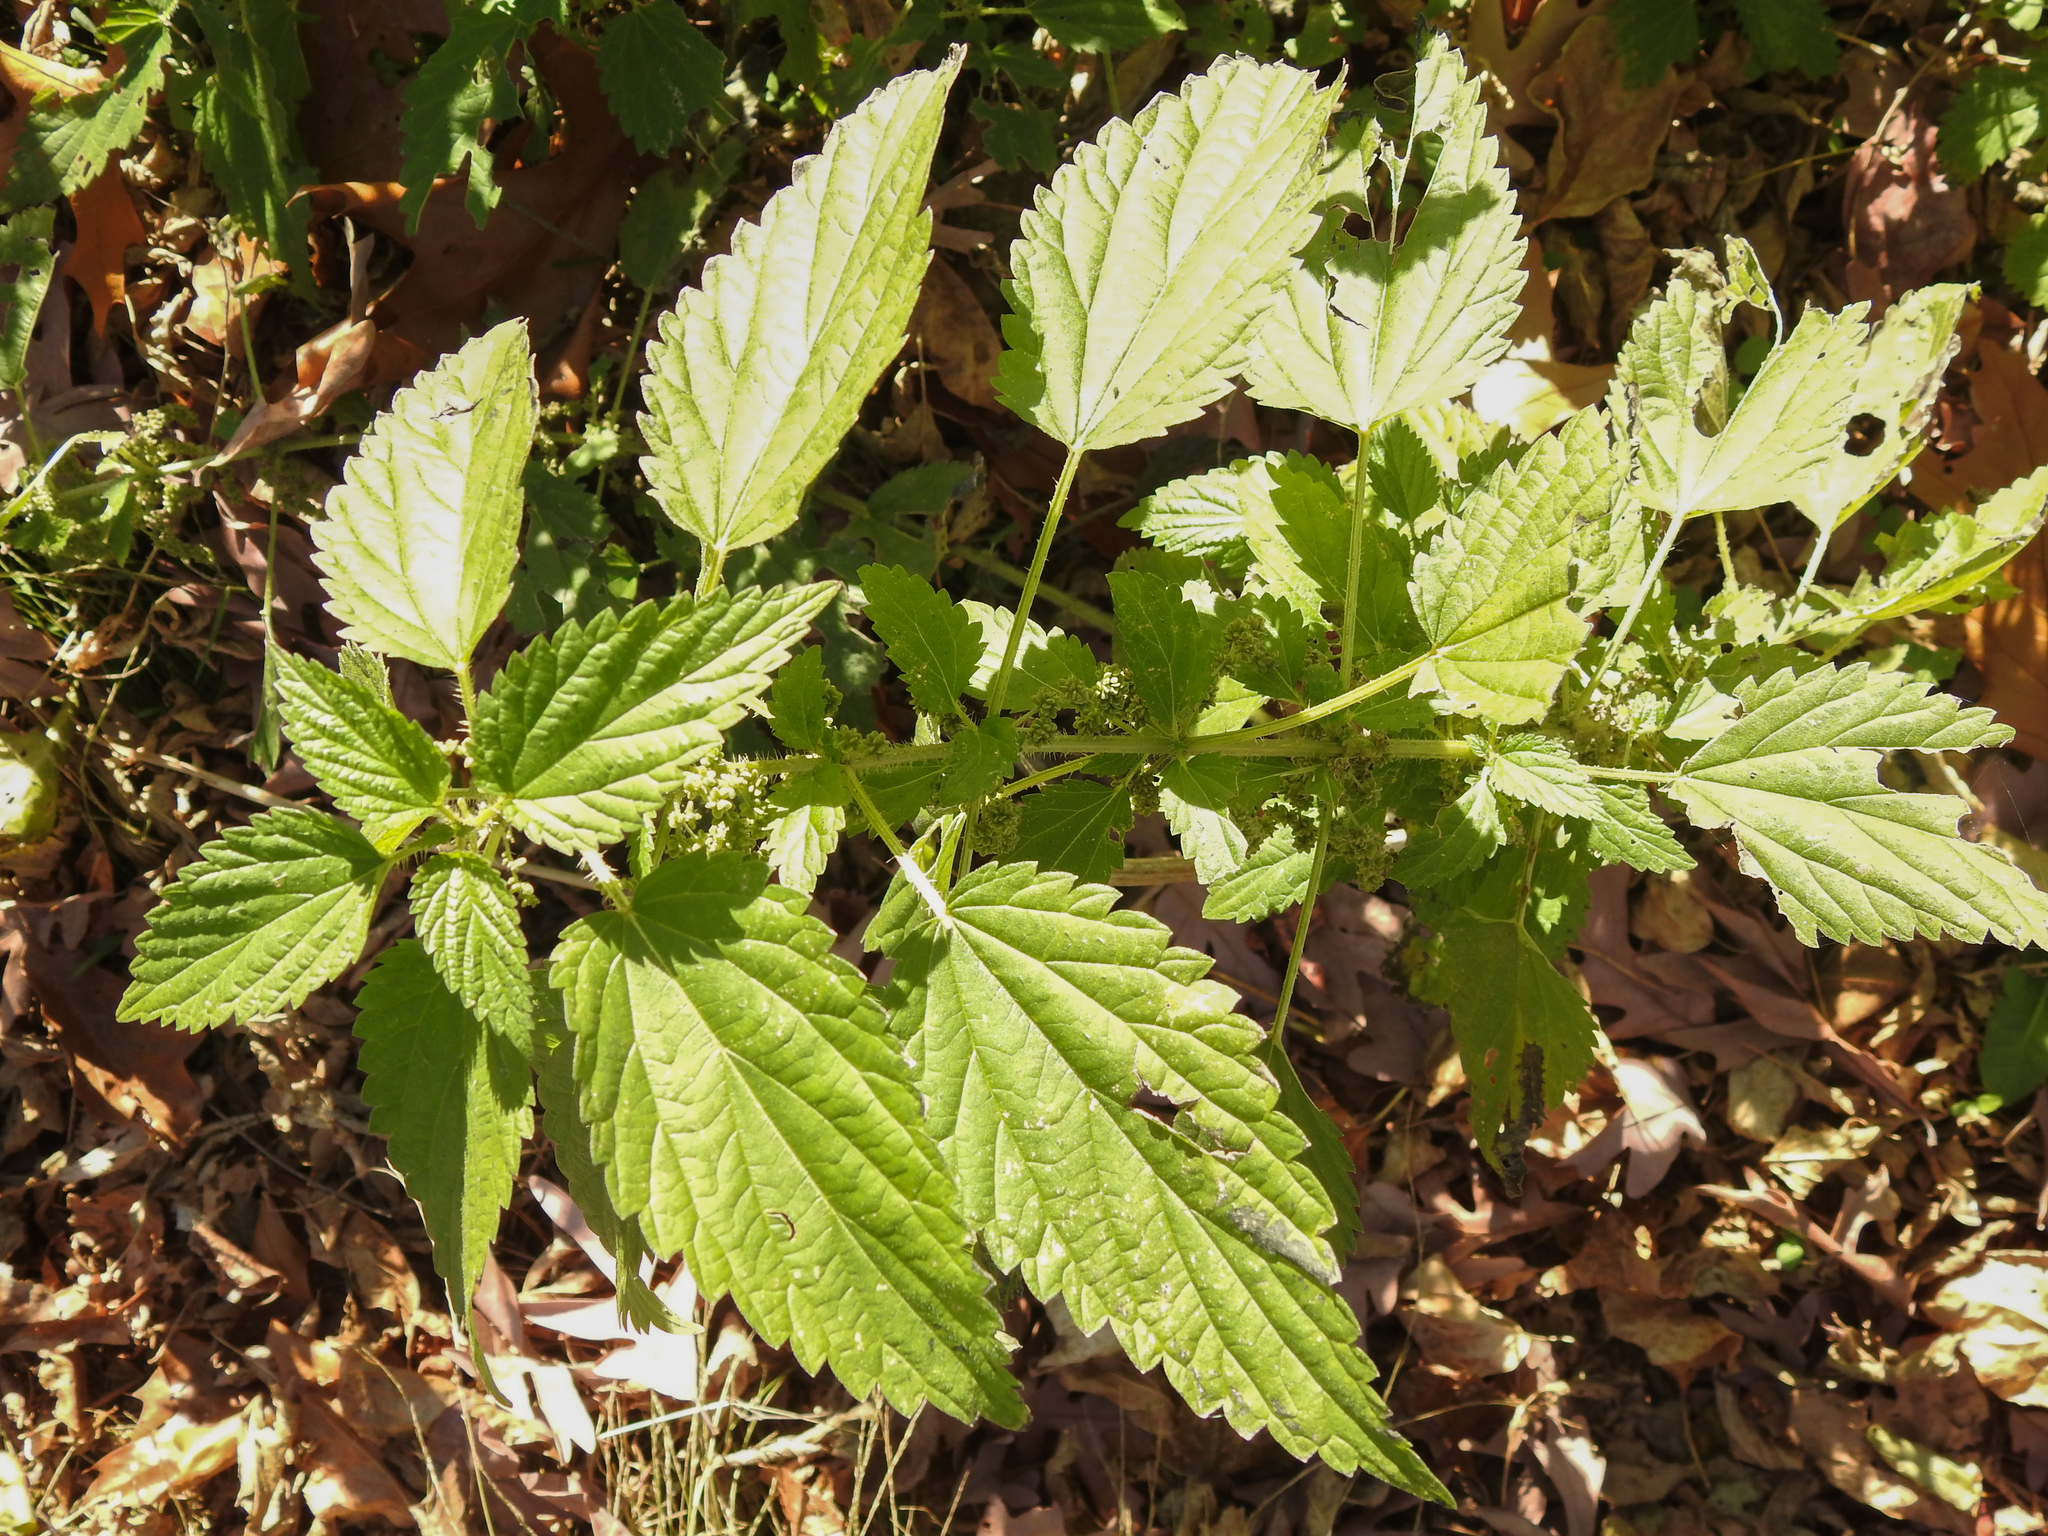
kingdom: Plantae
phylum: Tracheophyta
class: Magnoliopsida
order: Rosales
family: Urticaceae
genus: Urtica
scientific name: Urtica dioica
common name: Common nettle
